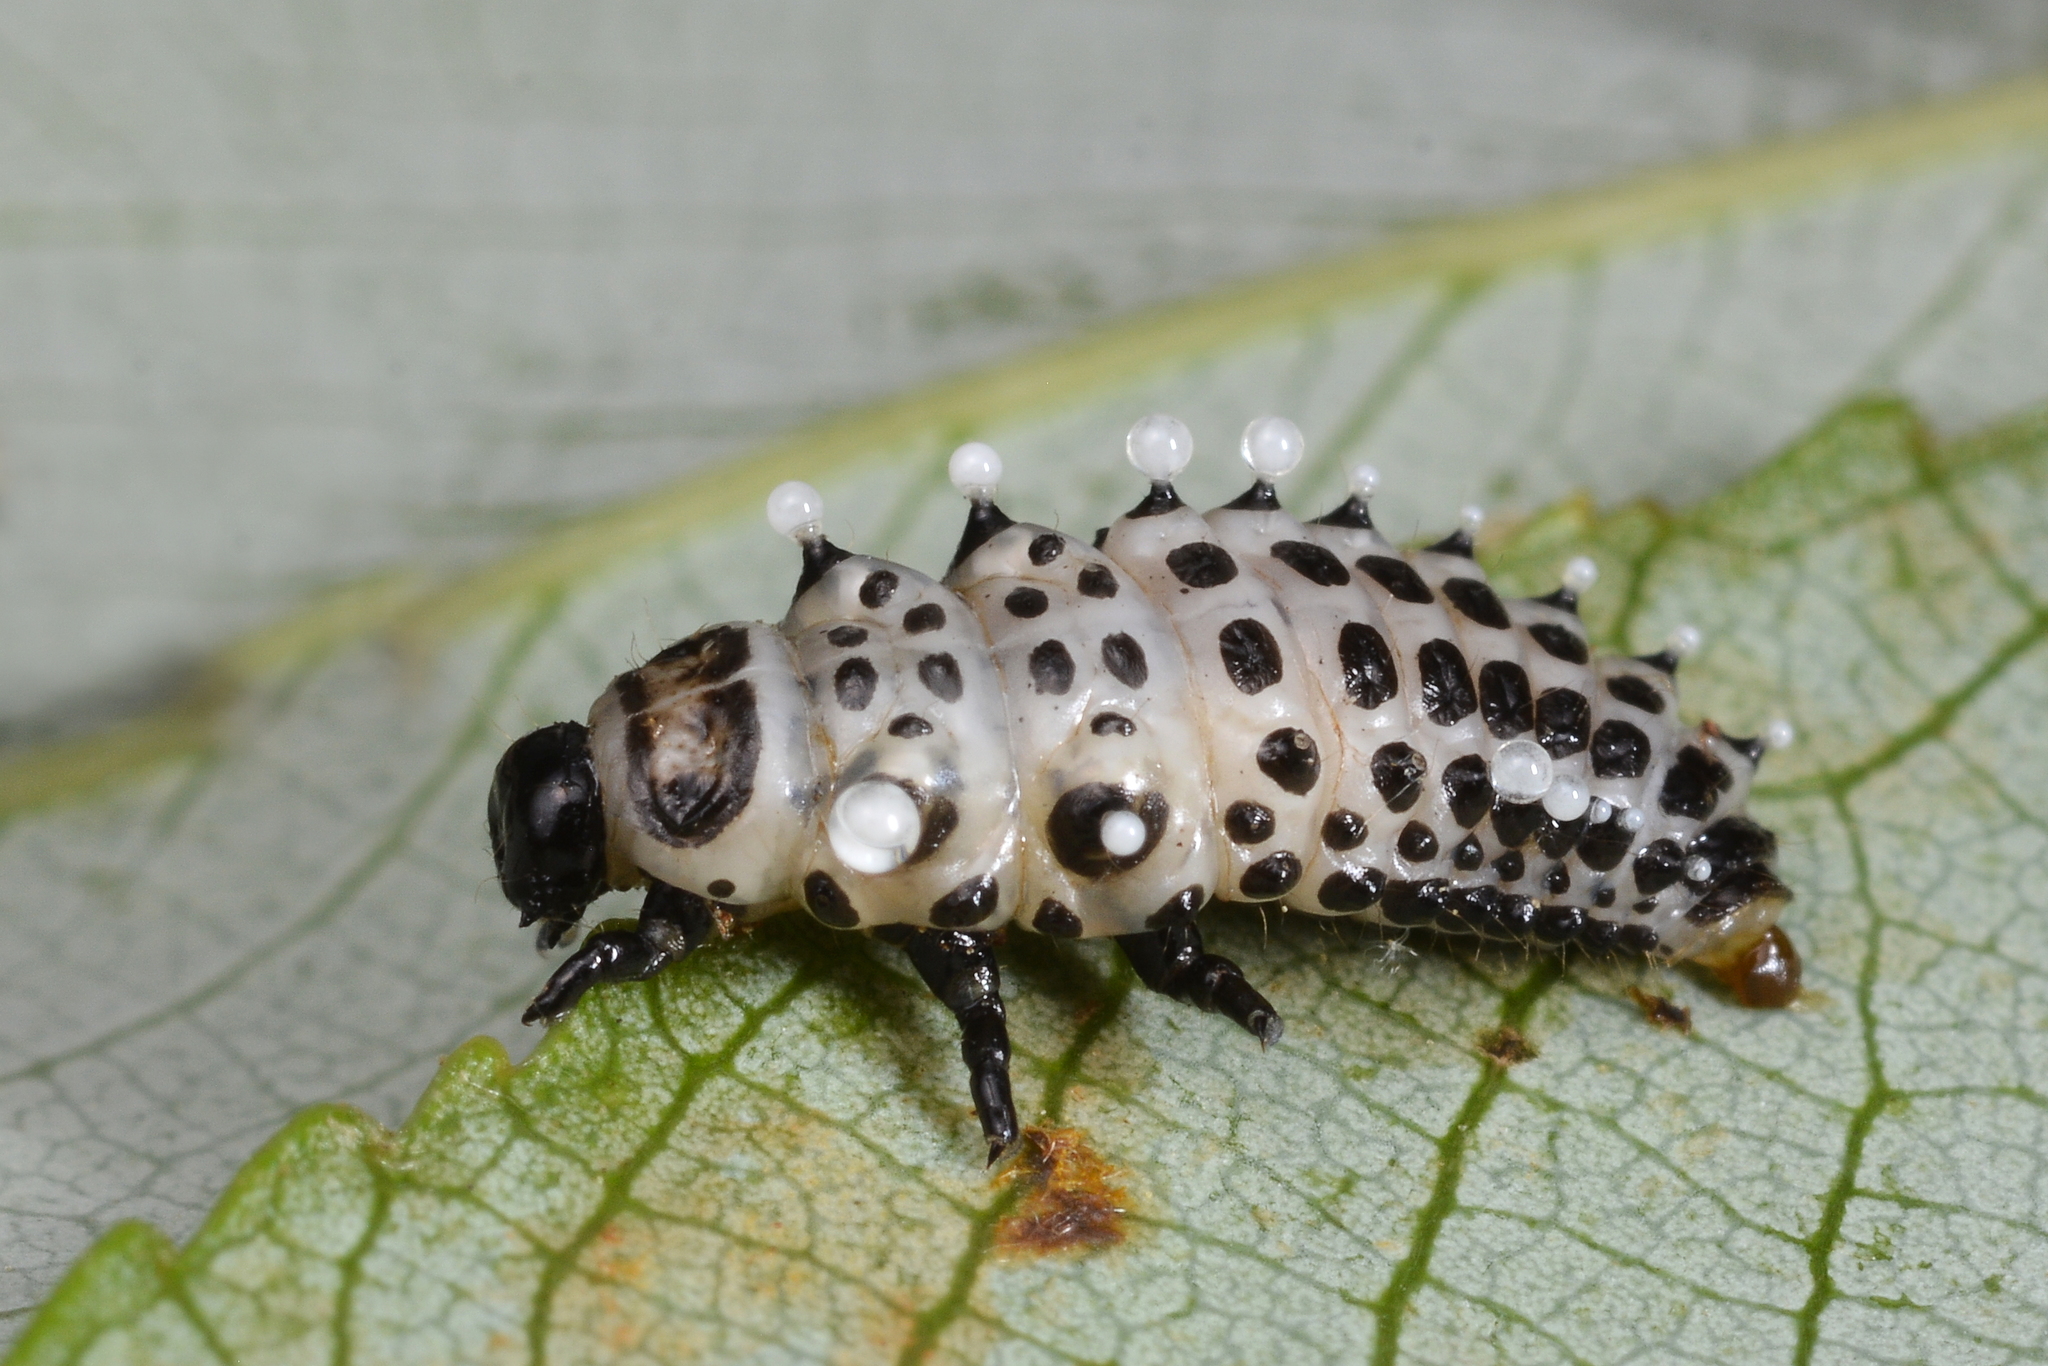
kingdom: Animalia
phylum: Arthropoda
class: Insecta
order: Coleoptera
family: Chrysomelidae
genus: Chrysomela
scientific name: Chrysomela vigintipunctata
